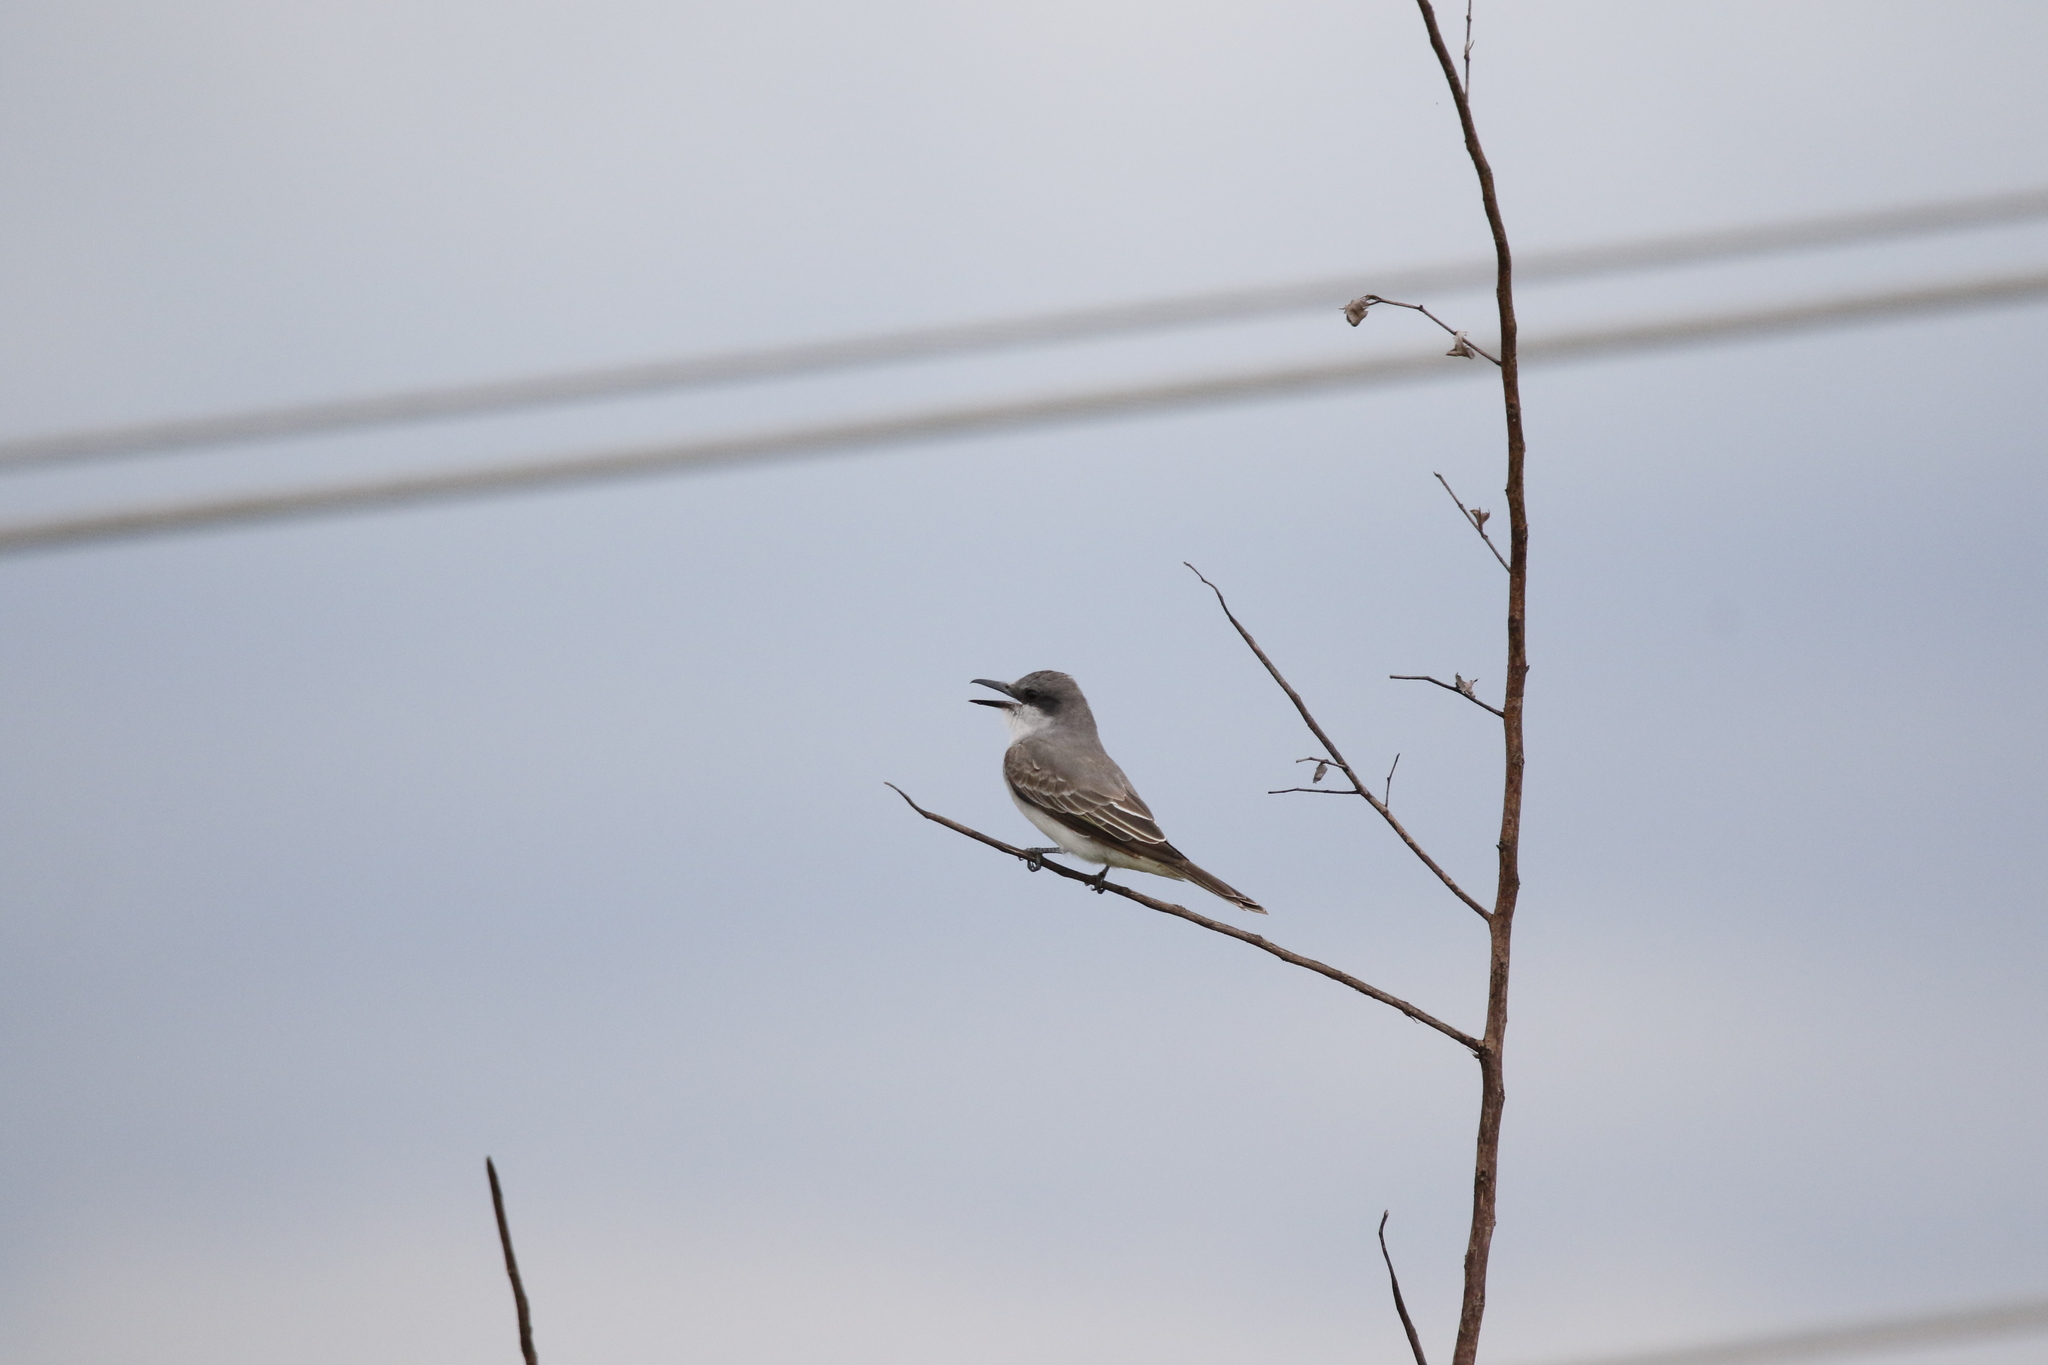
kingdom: Animalia
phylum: Chordata
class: Aves
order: Passeriformes
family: Tyrannidae
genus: Tyrannus
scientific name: Tyrannus dominicensis
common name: Gray kingbird
